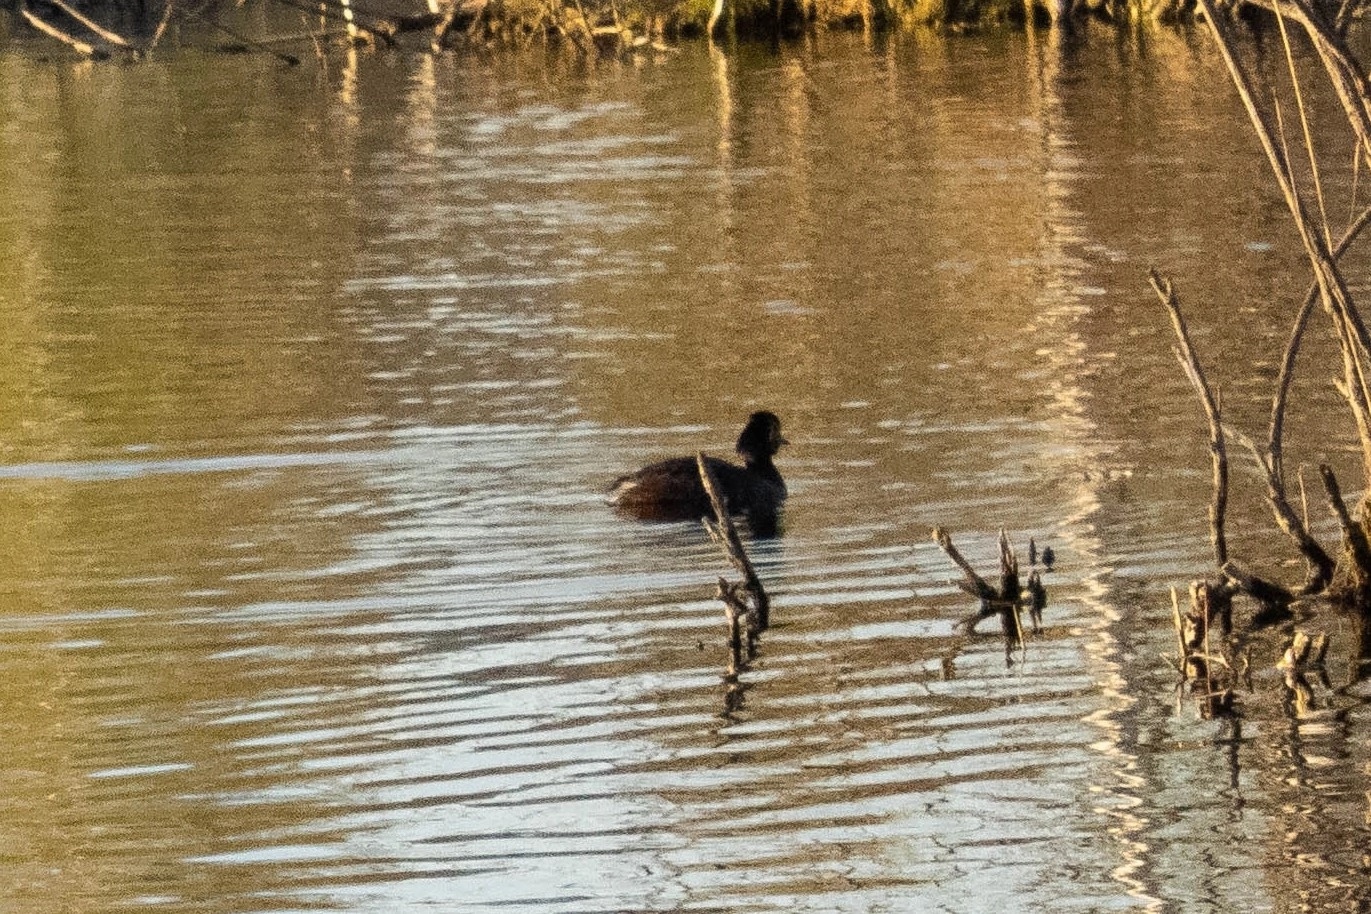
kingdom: Animalia
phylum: Chordata
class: Aves
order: Podicipediformes
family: Podicipedidae
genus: Podiceps
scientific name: Podiceps nigricollis
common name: Black-necked grebe
